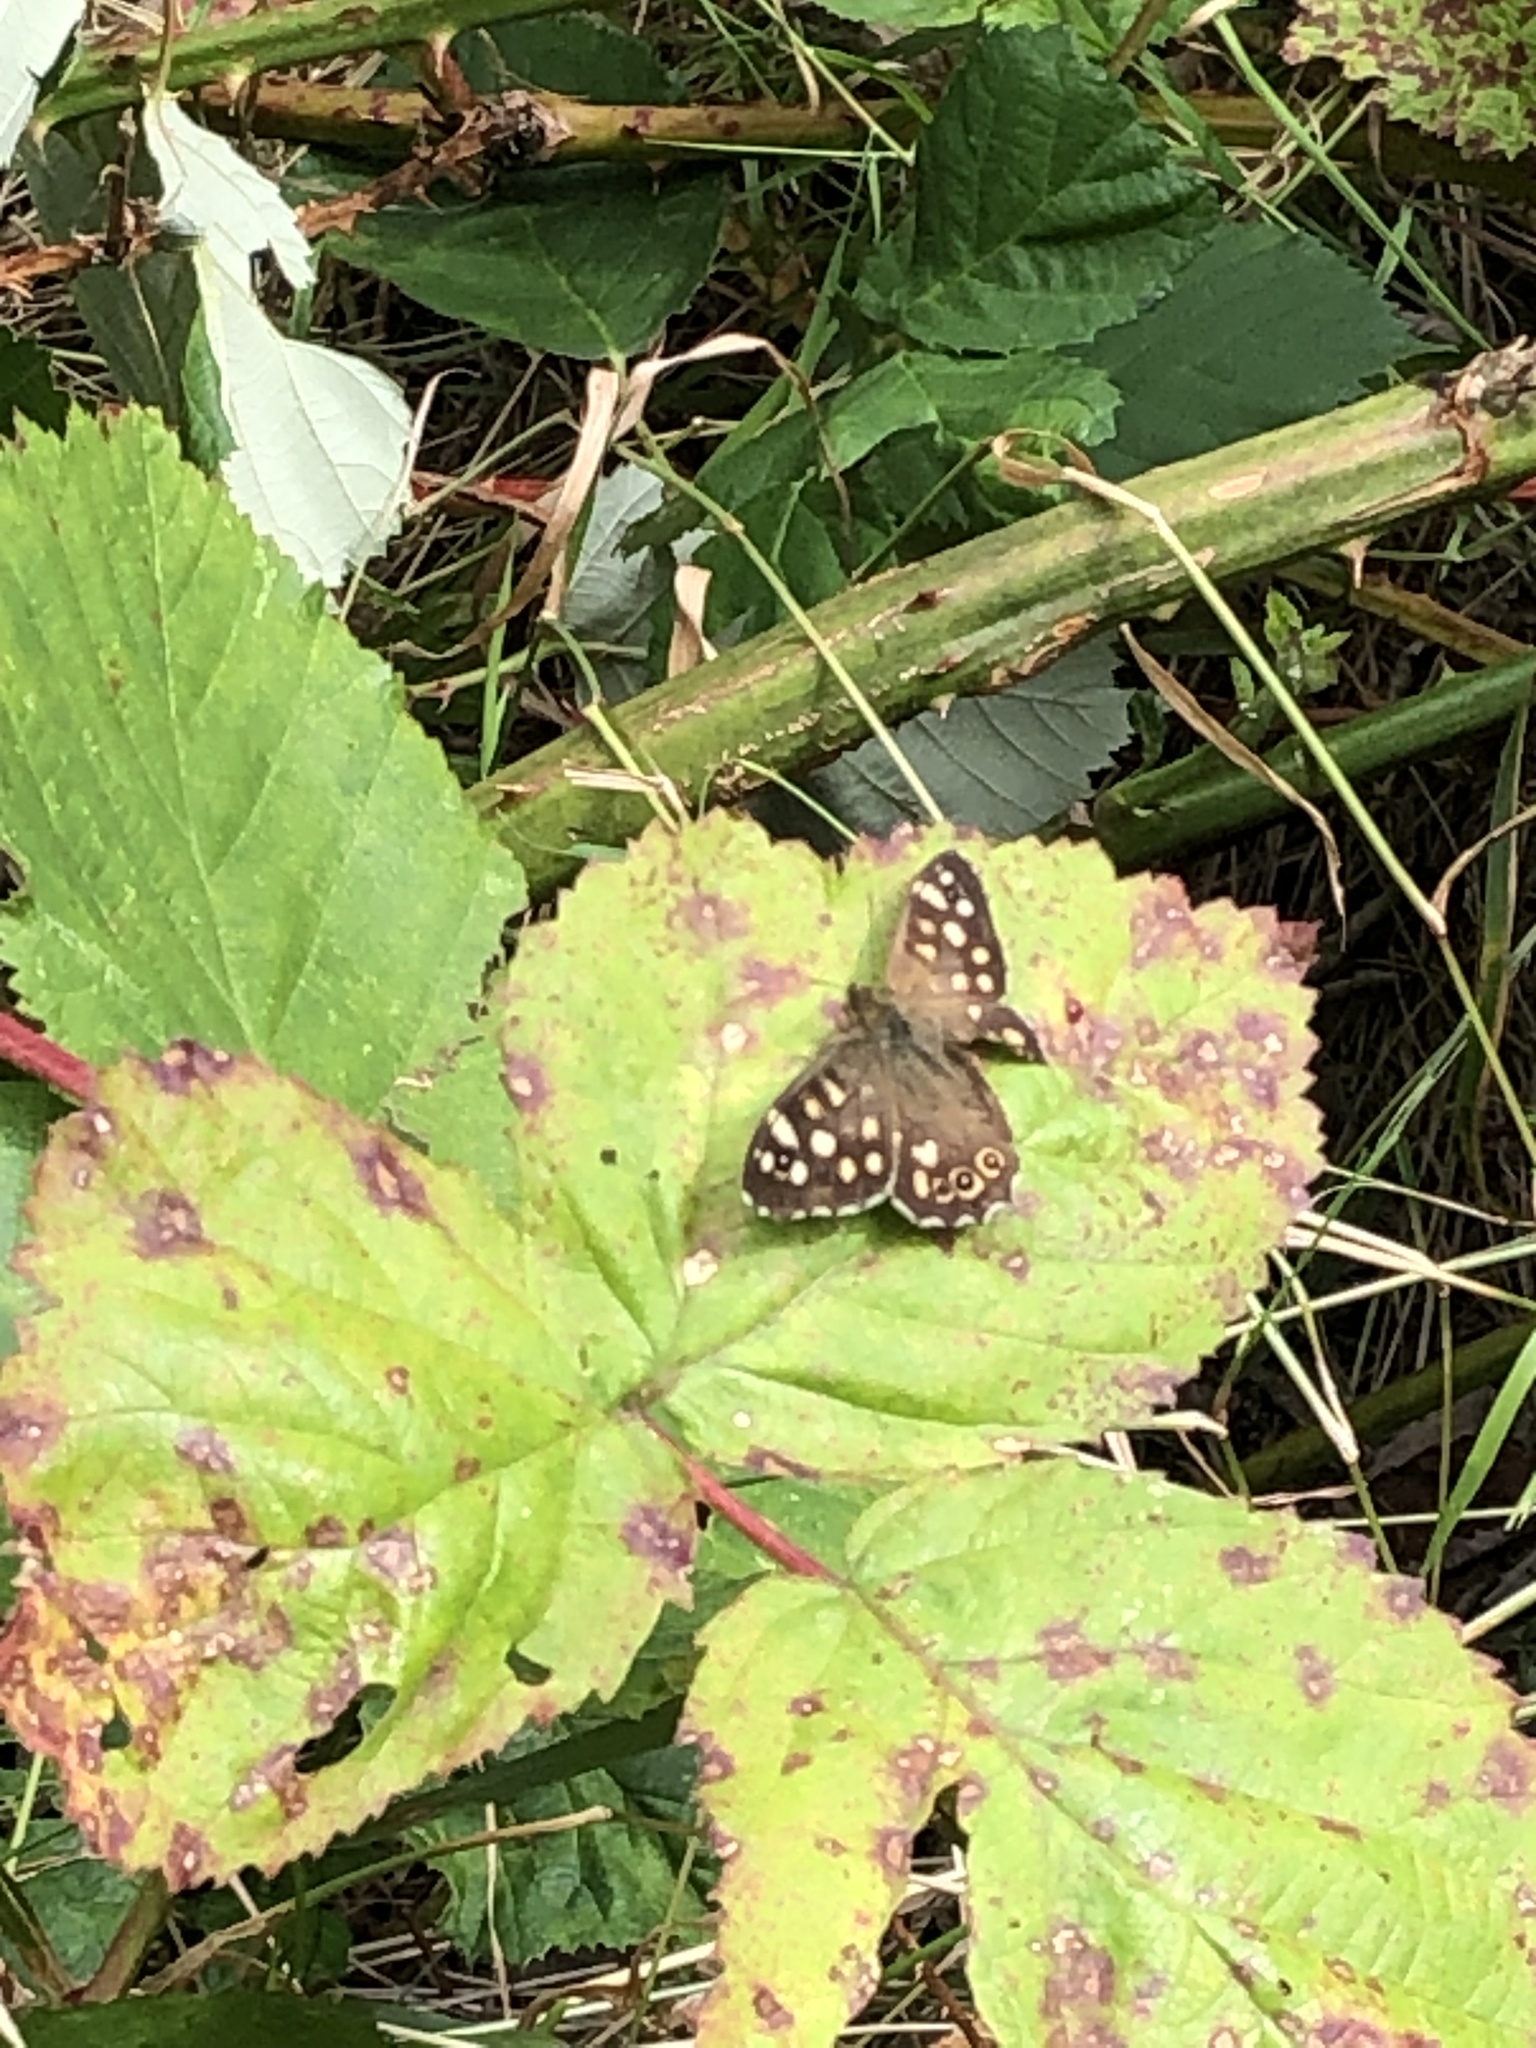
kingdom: Animalia
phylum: Arthropoda
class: Insecta
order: Lepidoptera
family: Nymphalidae
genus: Pararge
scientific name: Pararge aegeria
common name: Speckled wood
